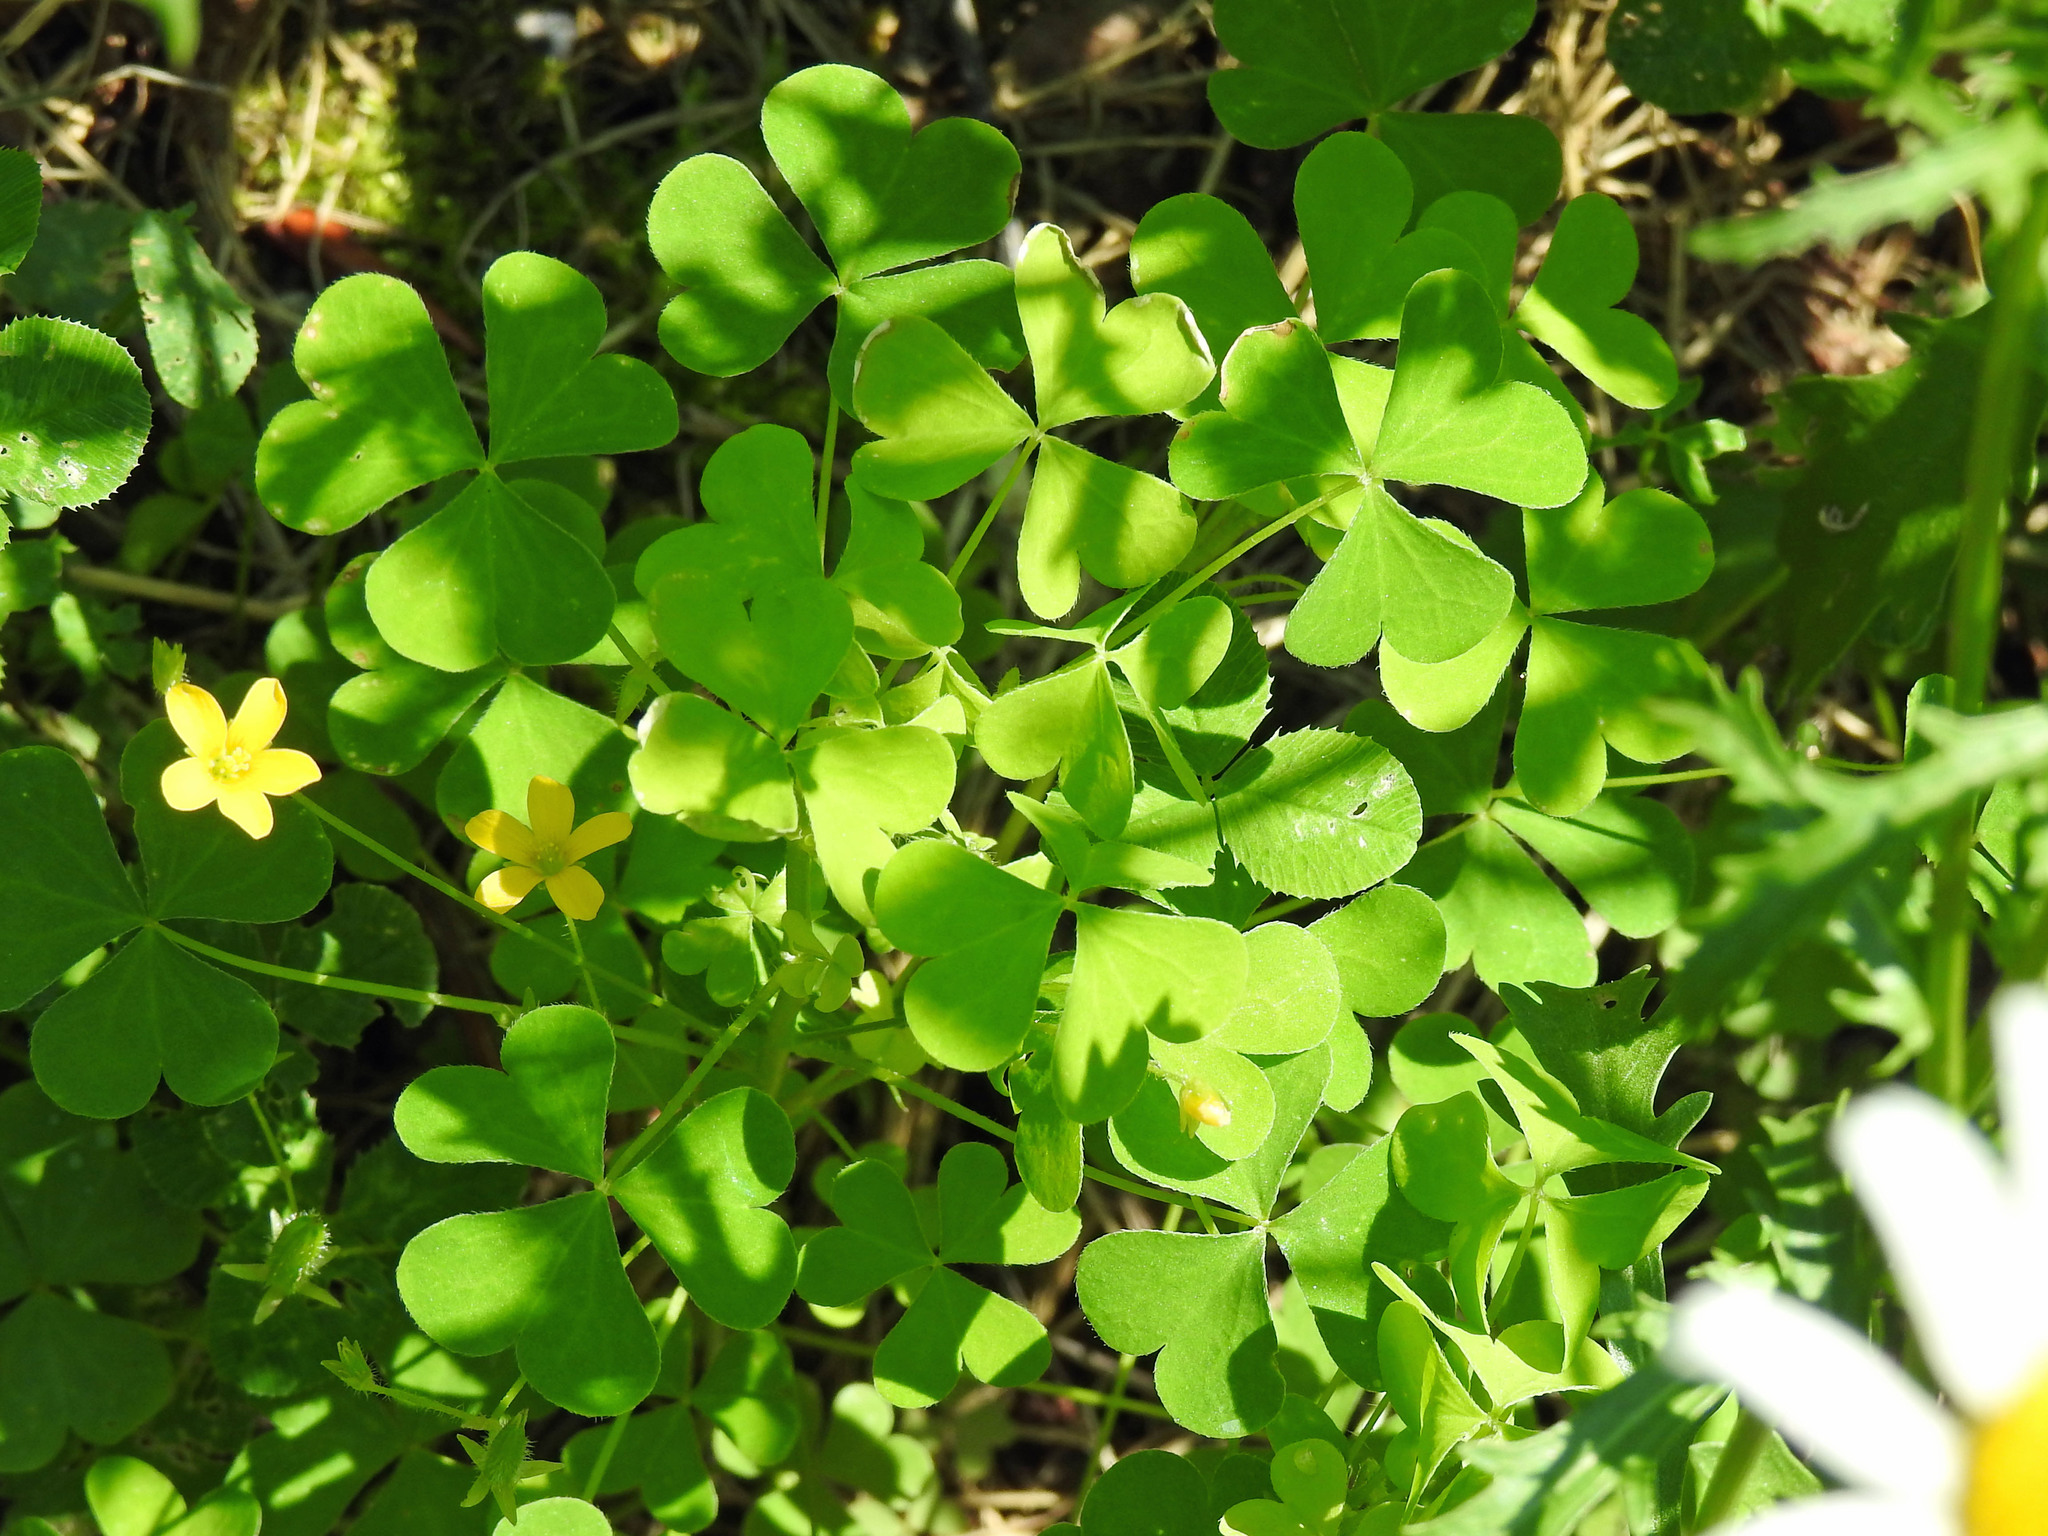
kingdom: Plantae
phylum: Tracheophyta
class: Magnoliopsida
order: Oxalidales
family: Oxalidaceae
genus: Oxalis
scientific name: Oxalis stricta
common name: Upright yellow-sorrel
